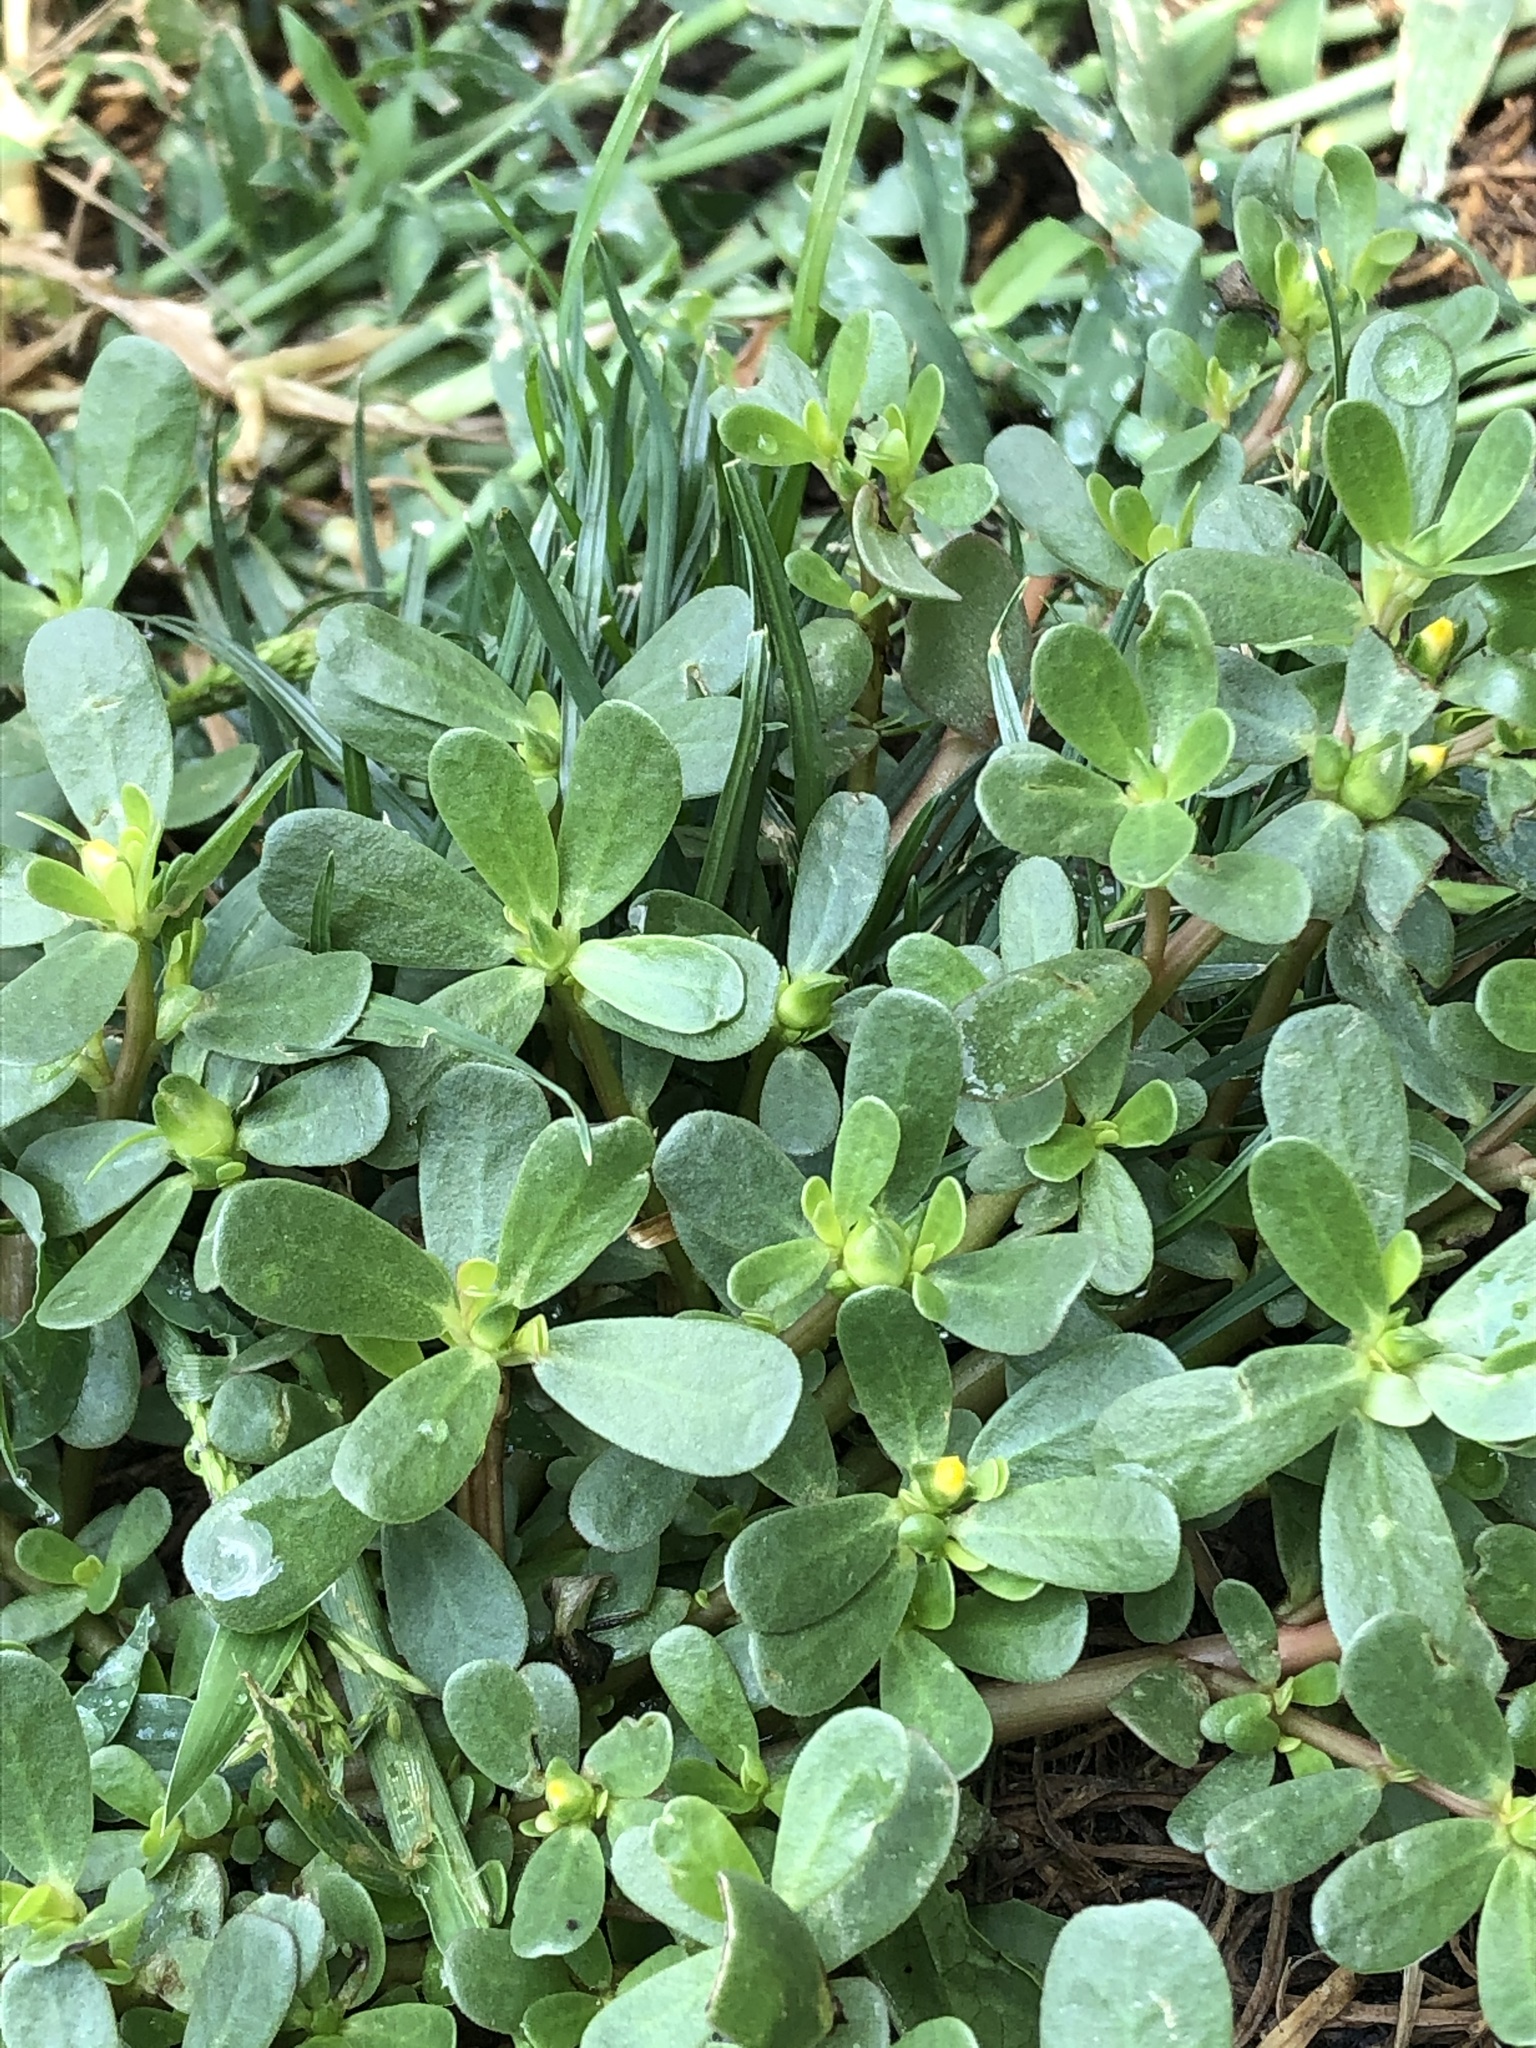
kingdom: Plantae
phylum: Tracheophyta
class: Magnoliopsida
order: Caryophyllales
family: Portulacaceae
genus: Portulaca
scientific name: Portulaca oleracea
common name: Common purslane
